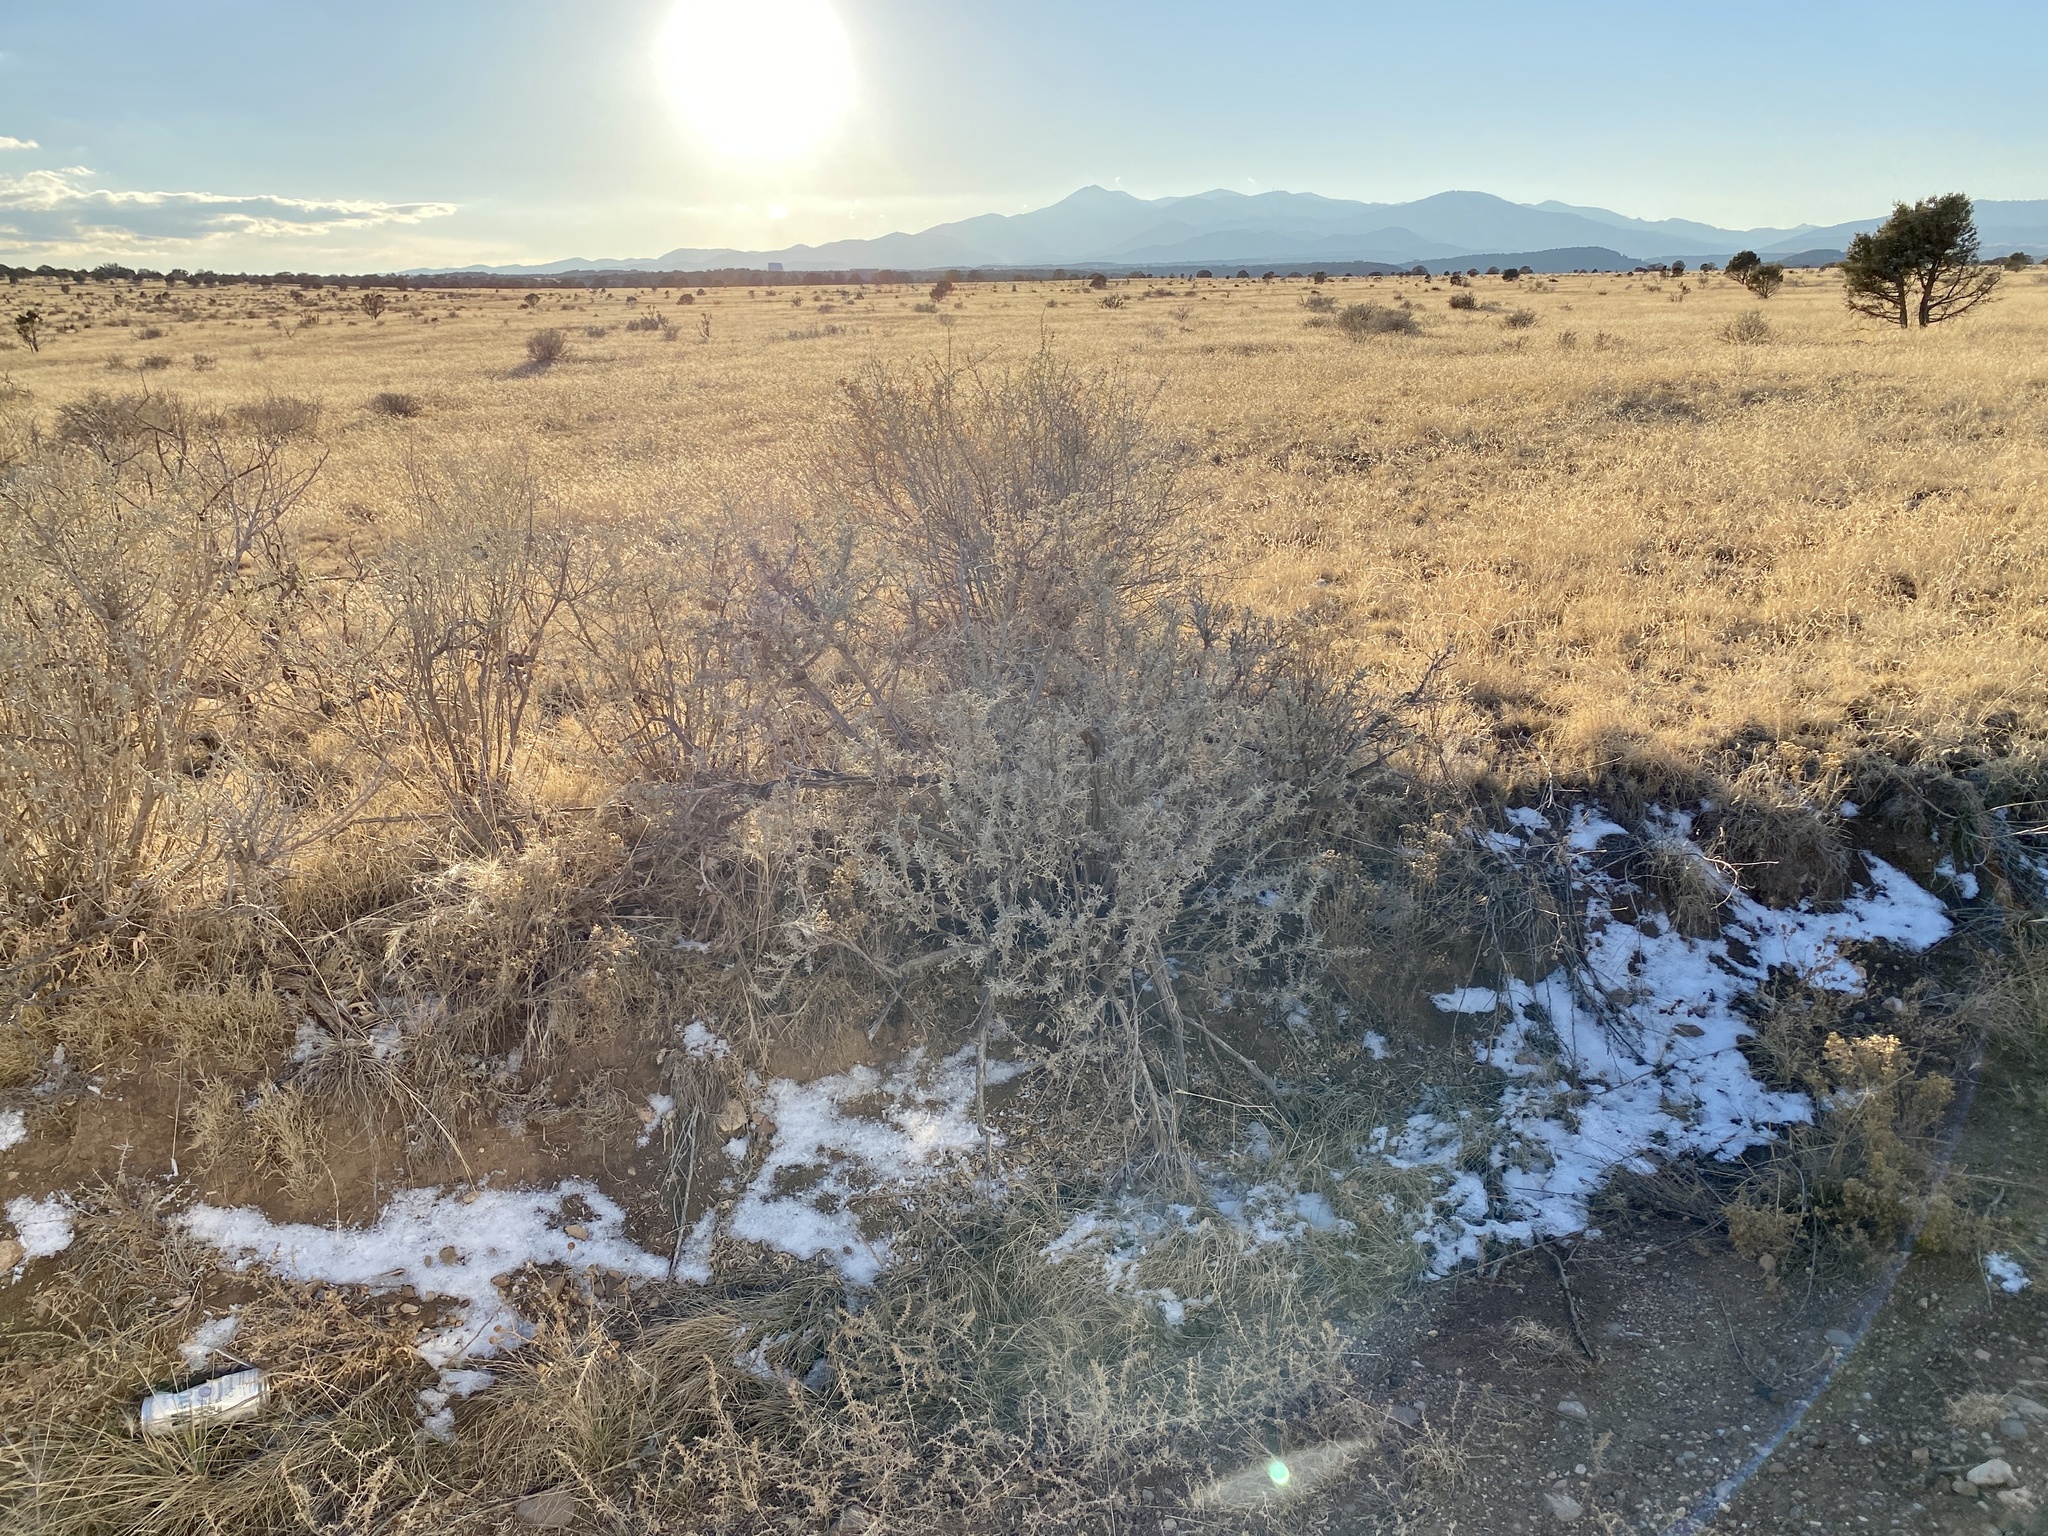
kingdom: Plantae
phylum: Tracheophyta
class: Magnoliopsida
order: Caryophyllales
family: Amaranthaceae
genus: Atriplex
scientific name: Atriplex canescens
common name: Four-wing saltbush
